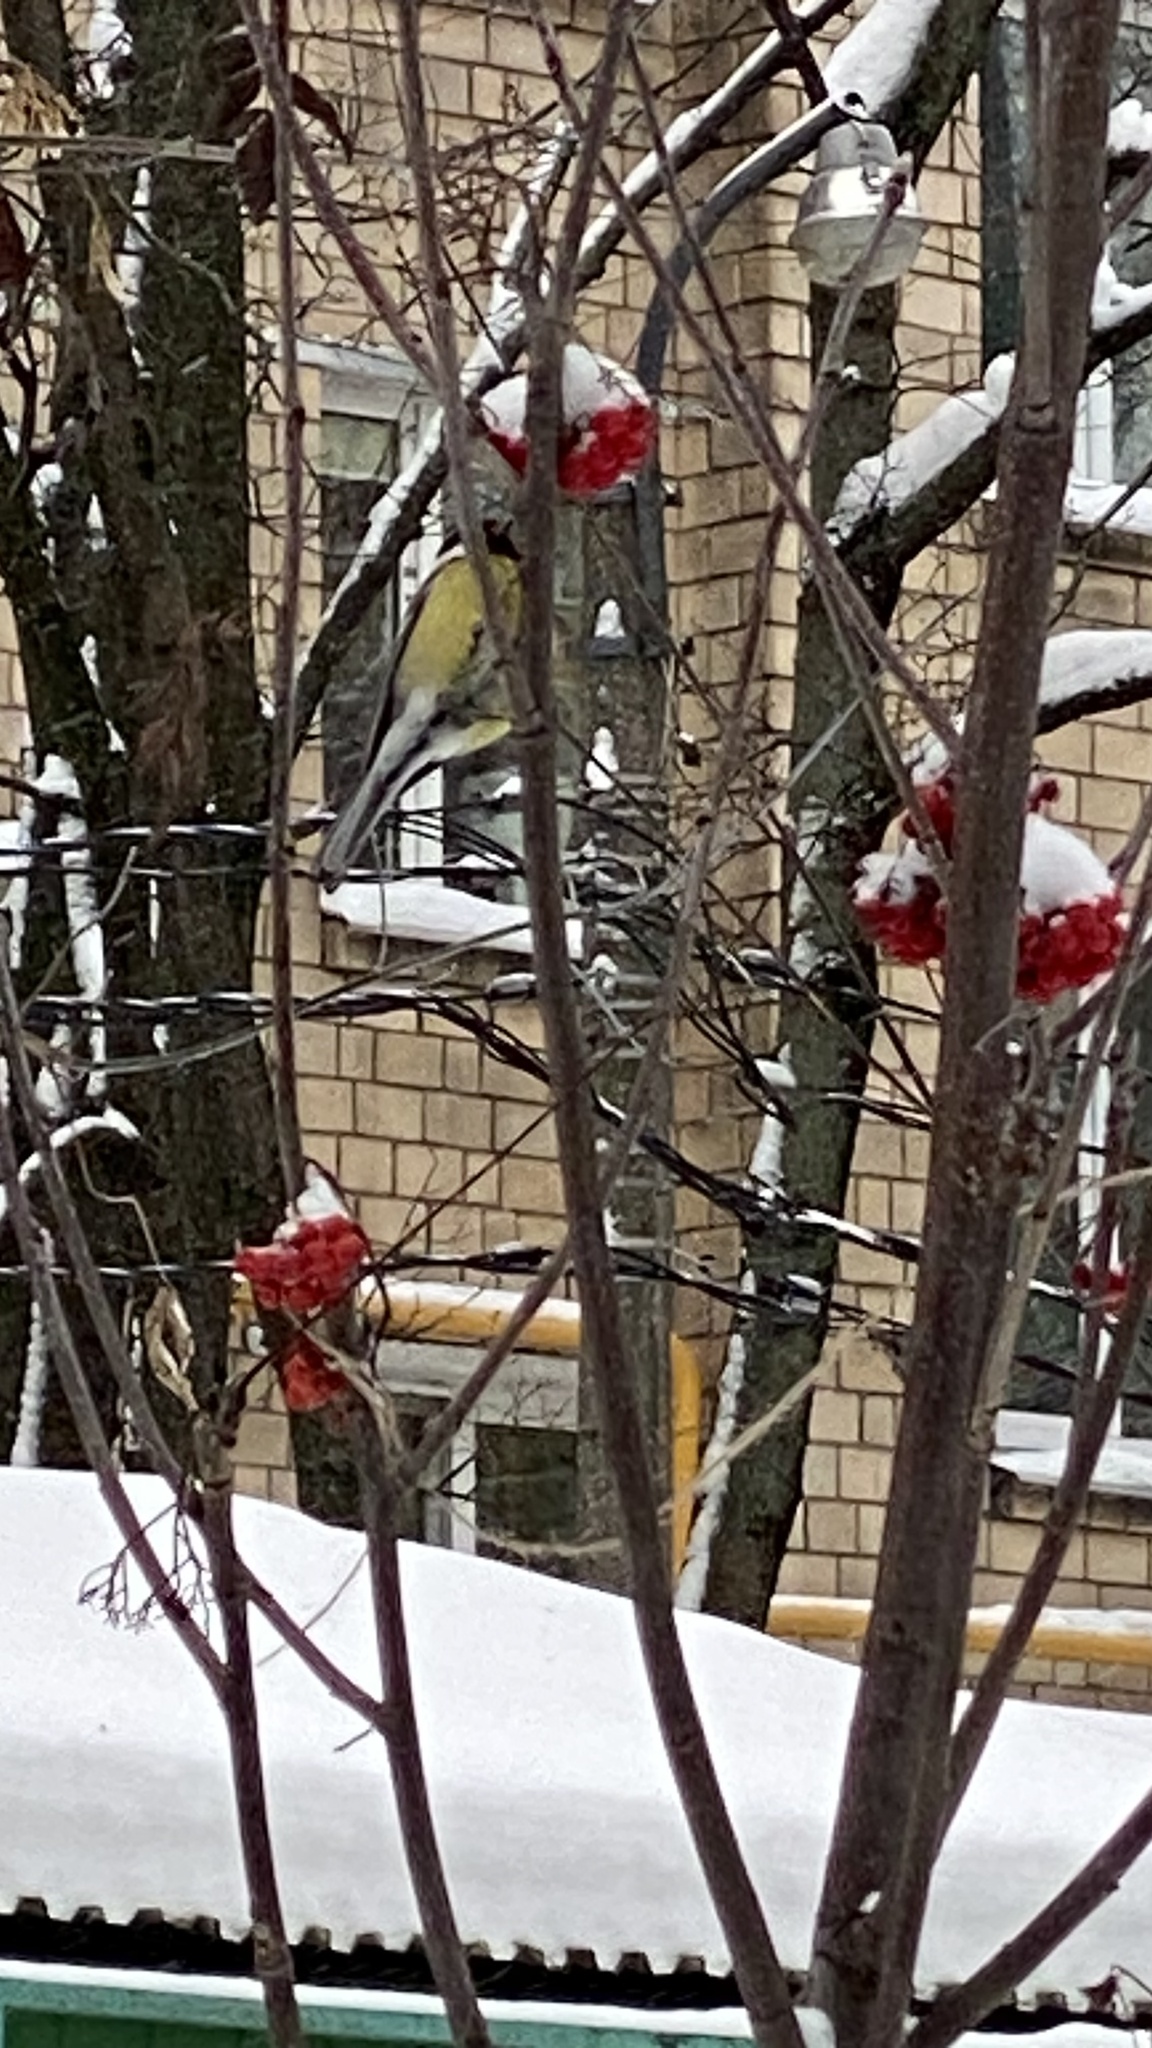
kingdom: Animalia
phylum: Chordata
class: Aves
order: Passeriformes
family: Paridae
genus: Parus
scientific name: Parus major
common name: Great tit
